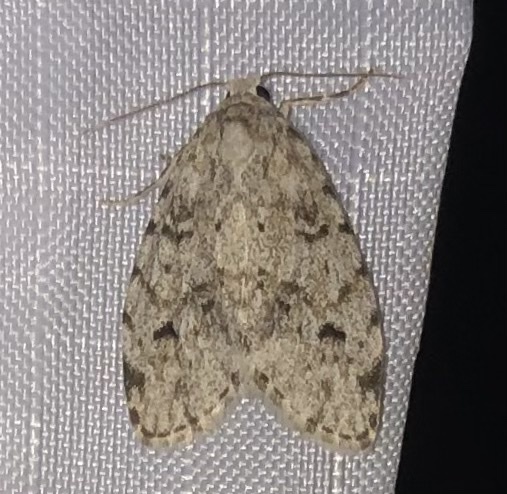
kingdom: Animalia
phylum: Arthropoda
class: Insecta
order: Lepidoptera
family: Erebidae
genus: Clemensia
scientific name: Clemensia albata
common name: Little white lichen moth
